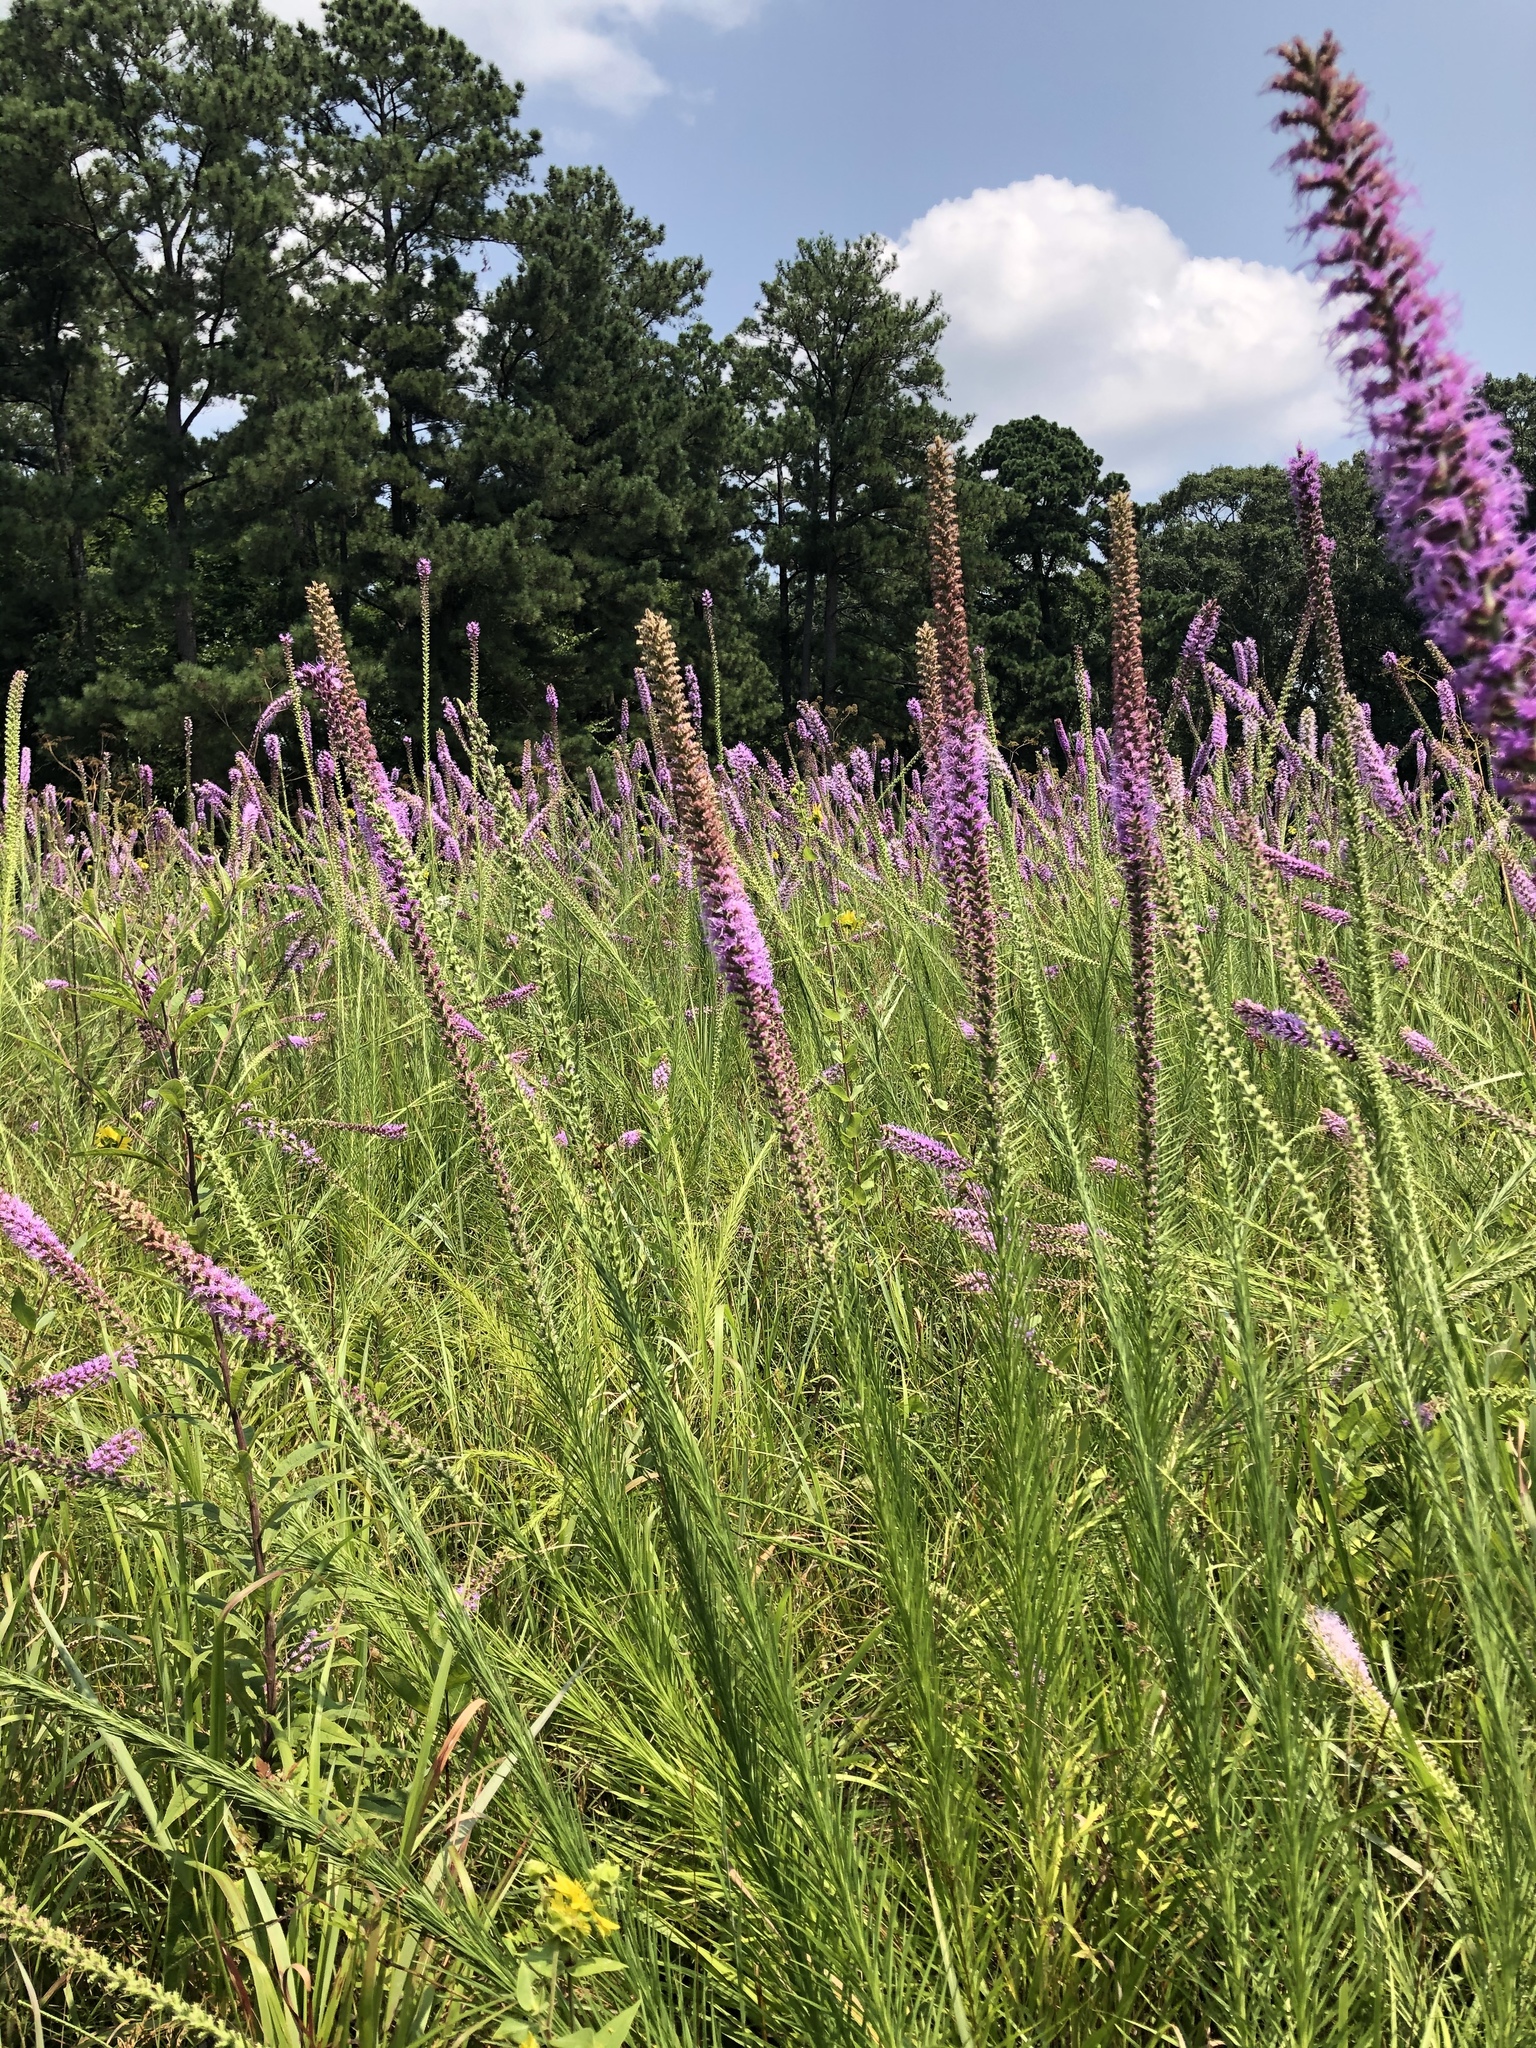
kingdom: Plantae
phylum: Tracheophyta
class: Magnoliopsida
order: Asterales
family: Asteraceae
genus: Liatris
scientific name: Liatris pycnostachya
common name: Cattail gayfeather
